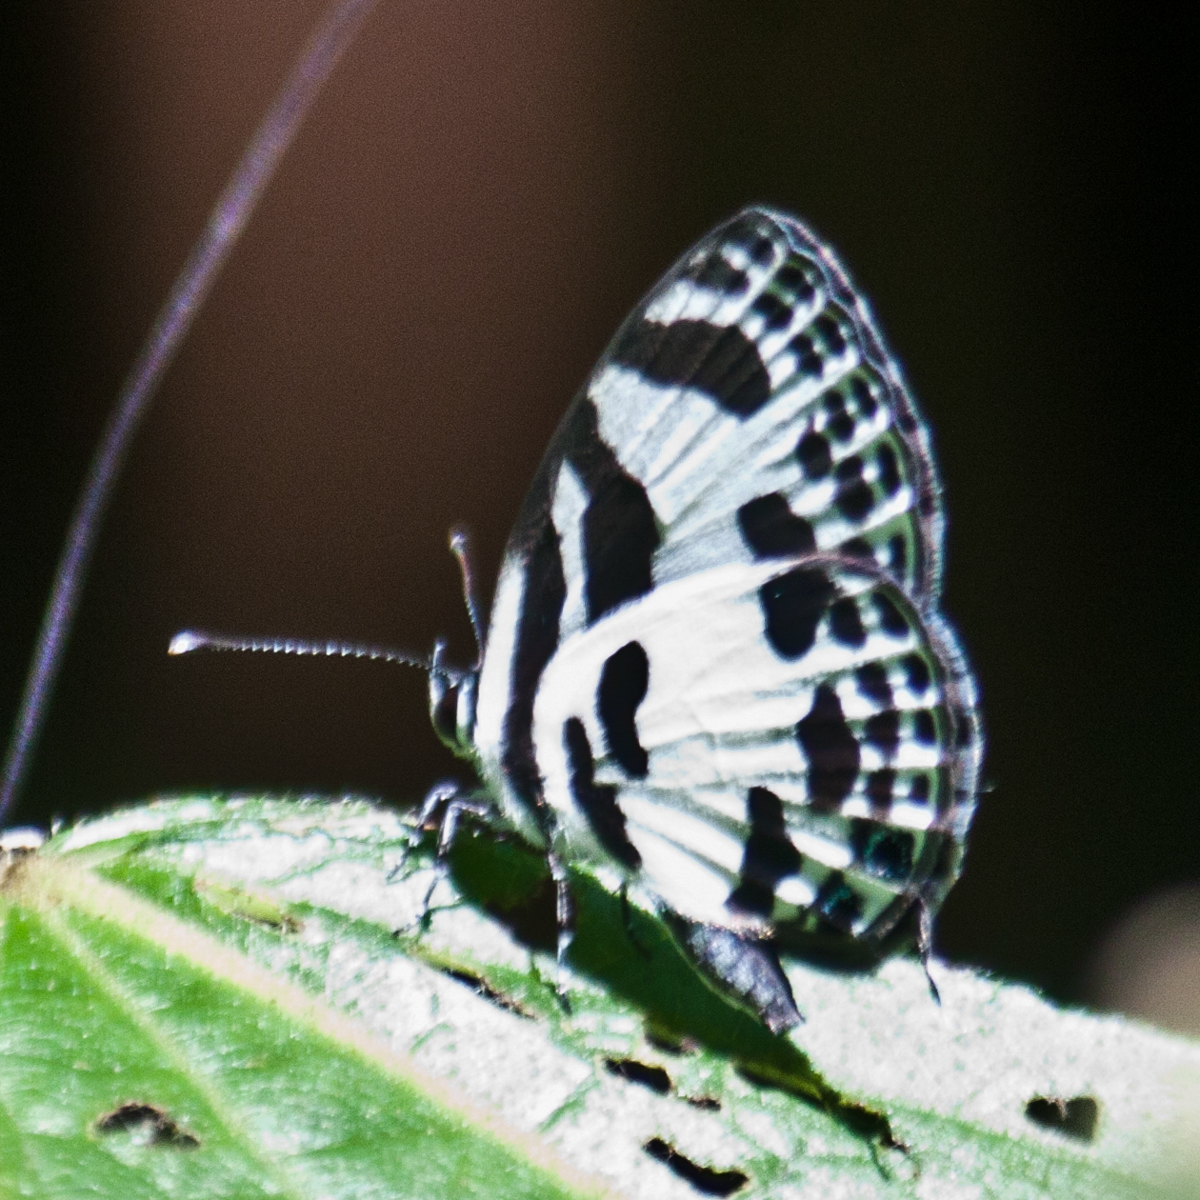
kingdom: Animalia
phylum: Arthropoda
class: Insecta
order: Lepidoptera
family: Lycaenidae
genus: Discolampa
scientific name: Discolampa ethion
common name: Banded blue pierrot
